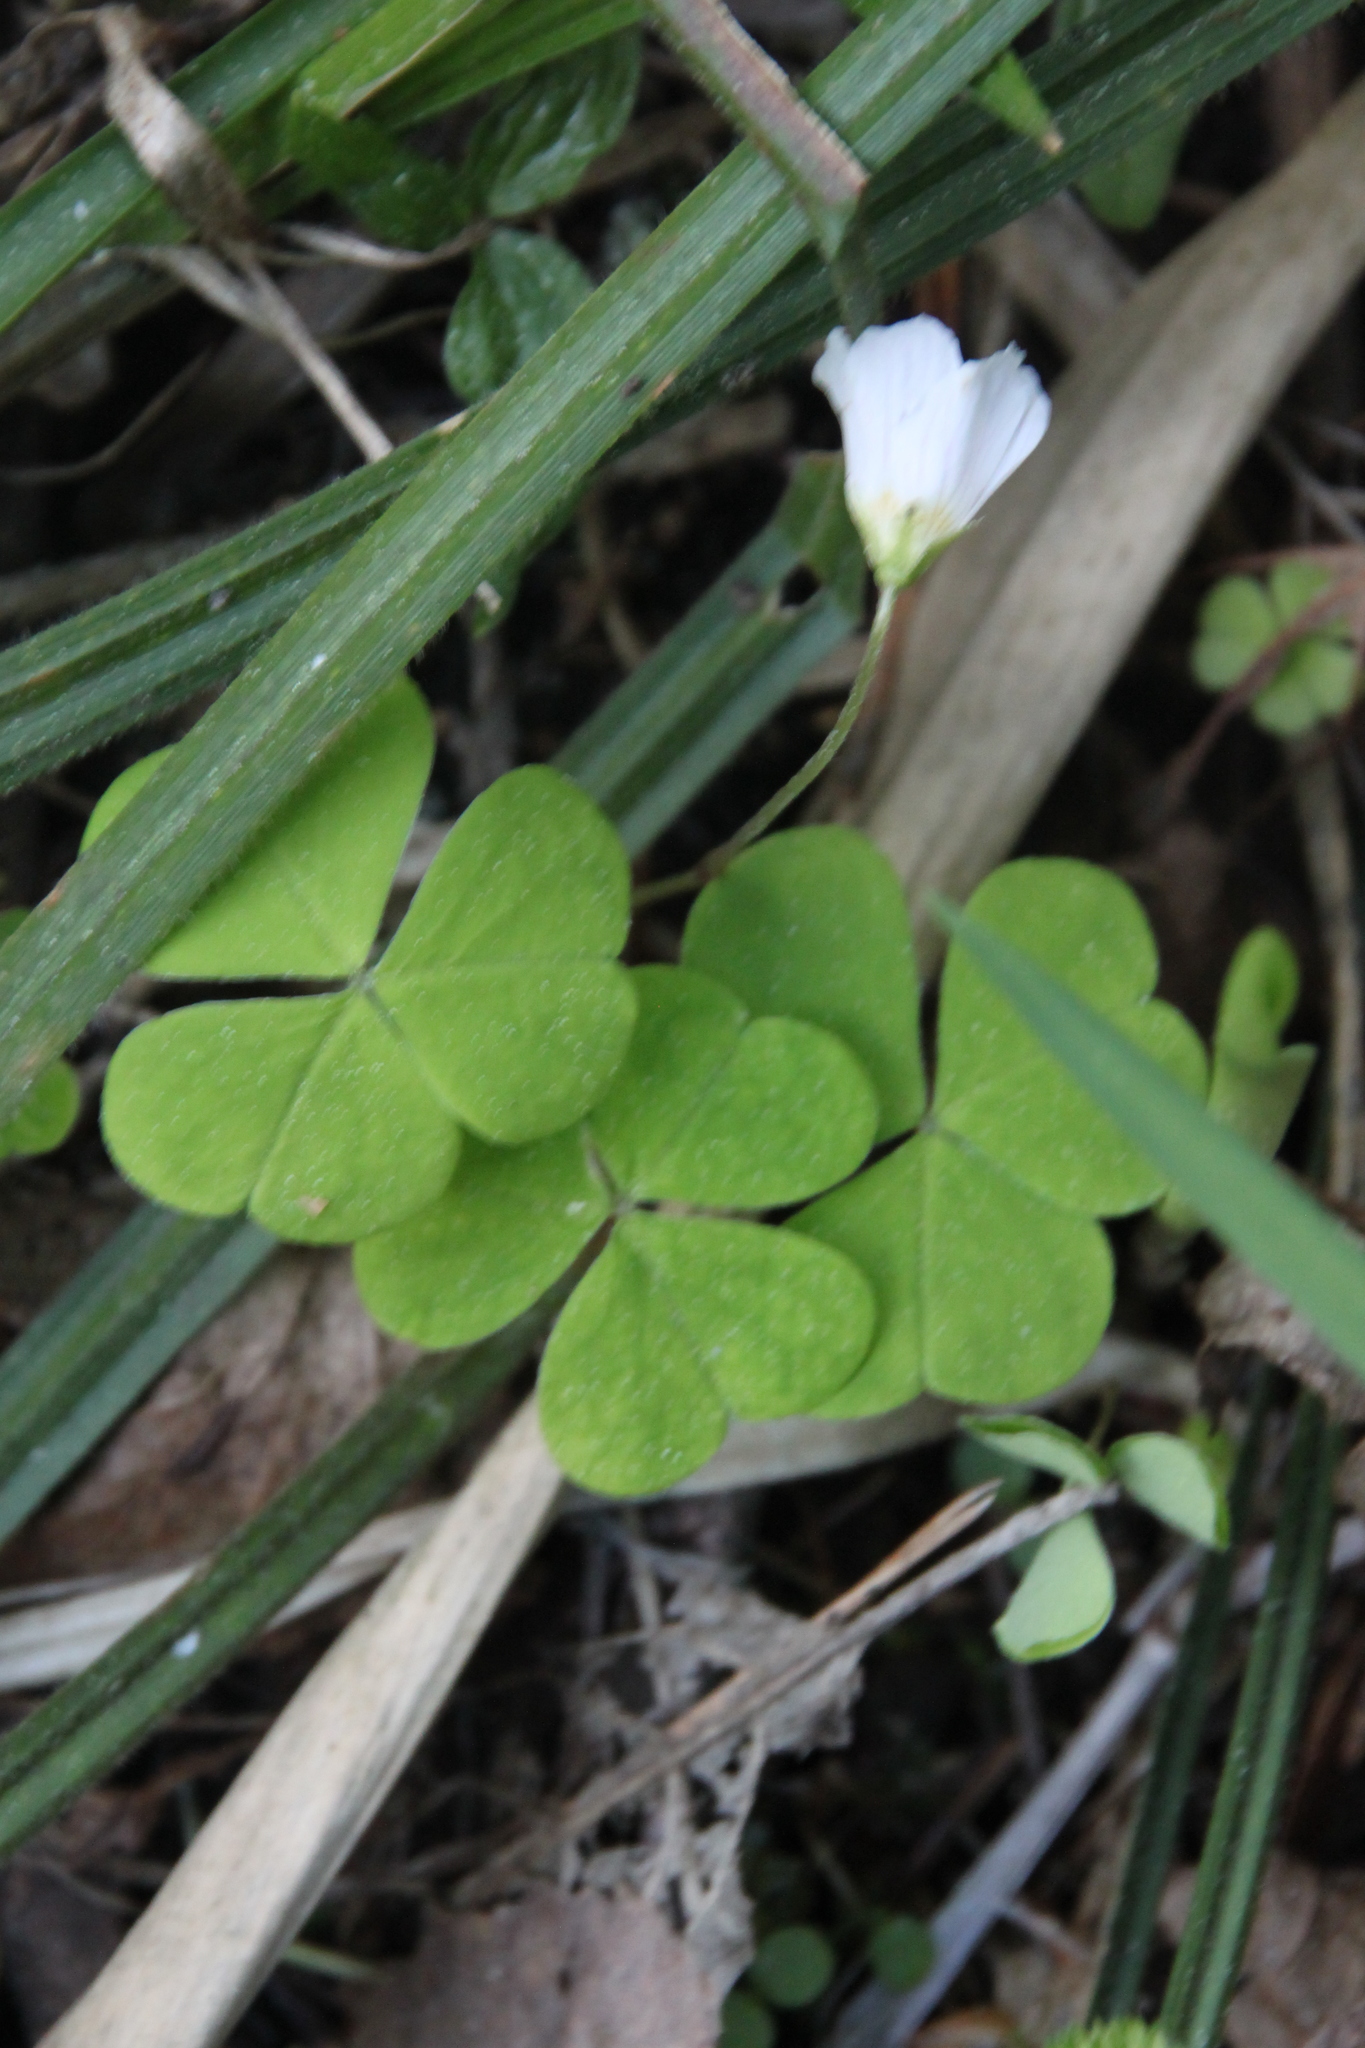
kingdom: Plantae
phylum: Tracheophyta
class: Magnoliopsida
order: Oxalidales
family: Oxalidaceae
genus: Oxalis
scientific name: Oxalis acetosella
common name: Wood-sorrel
